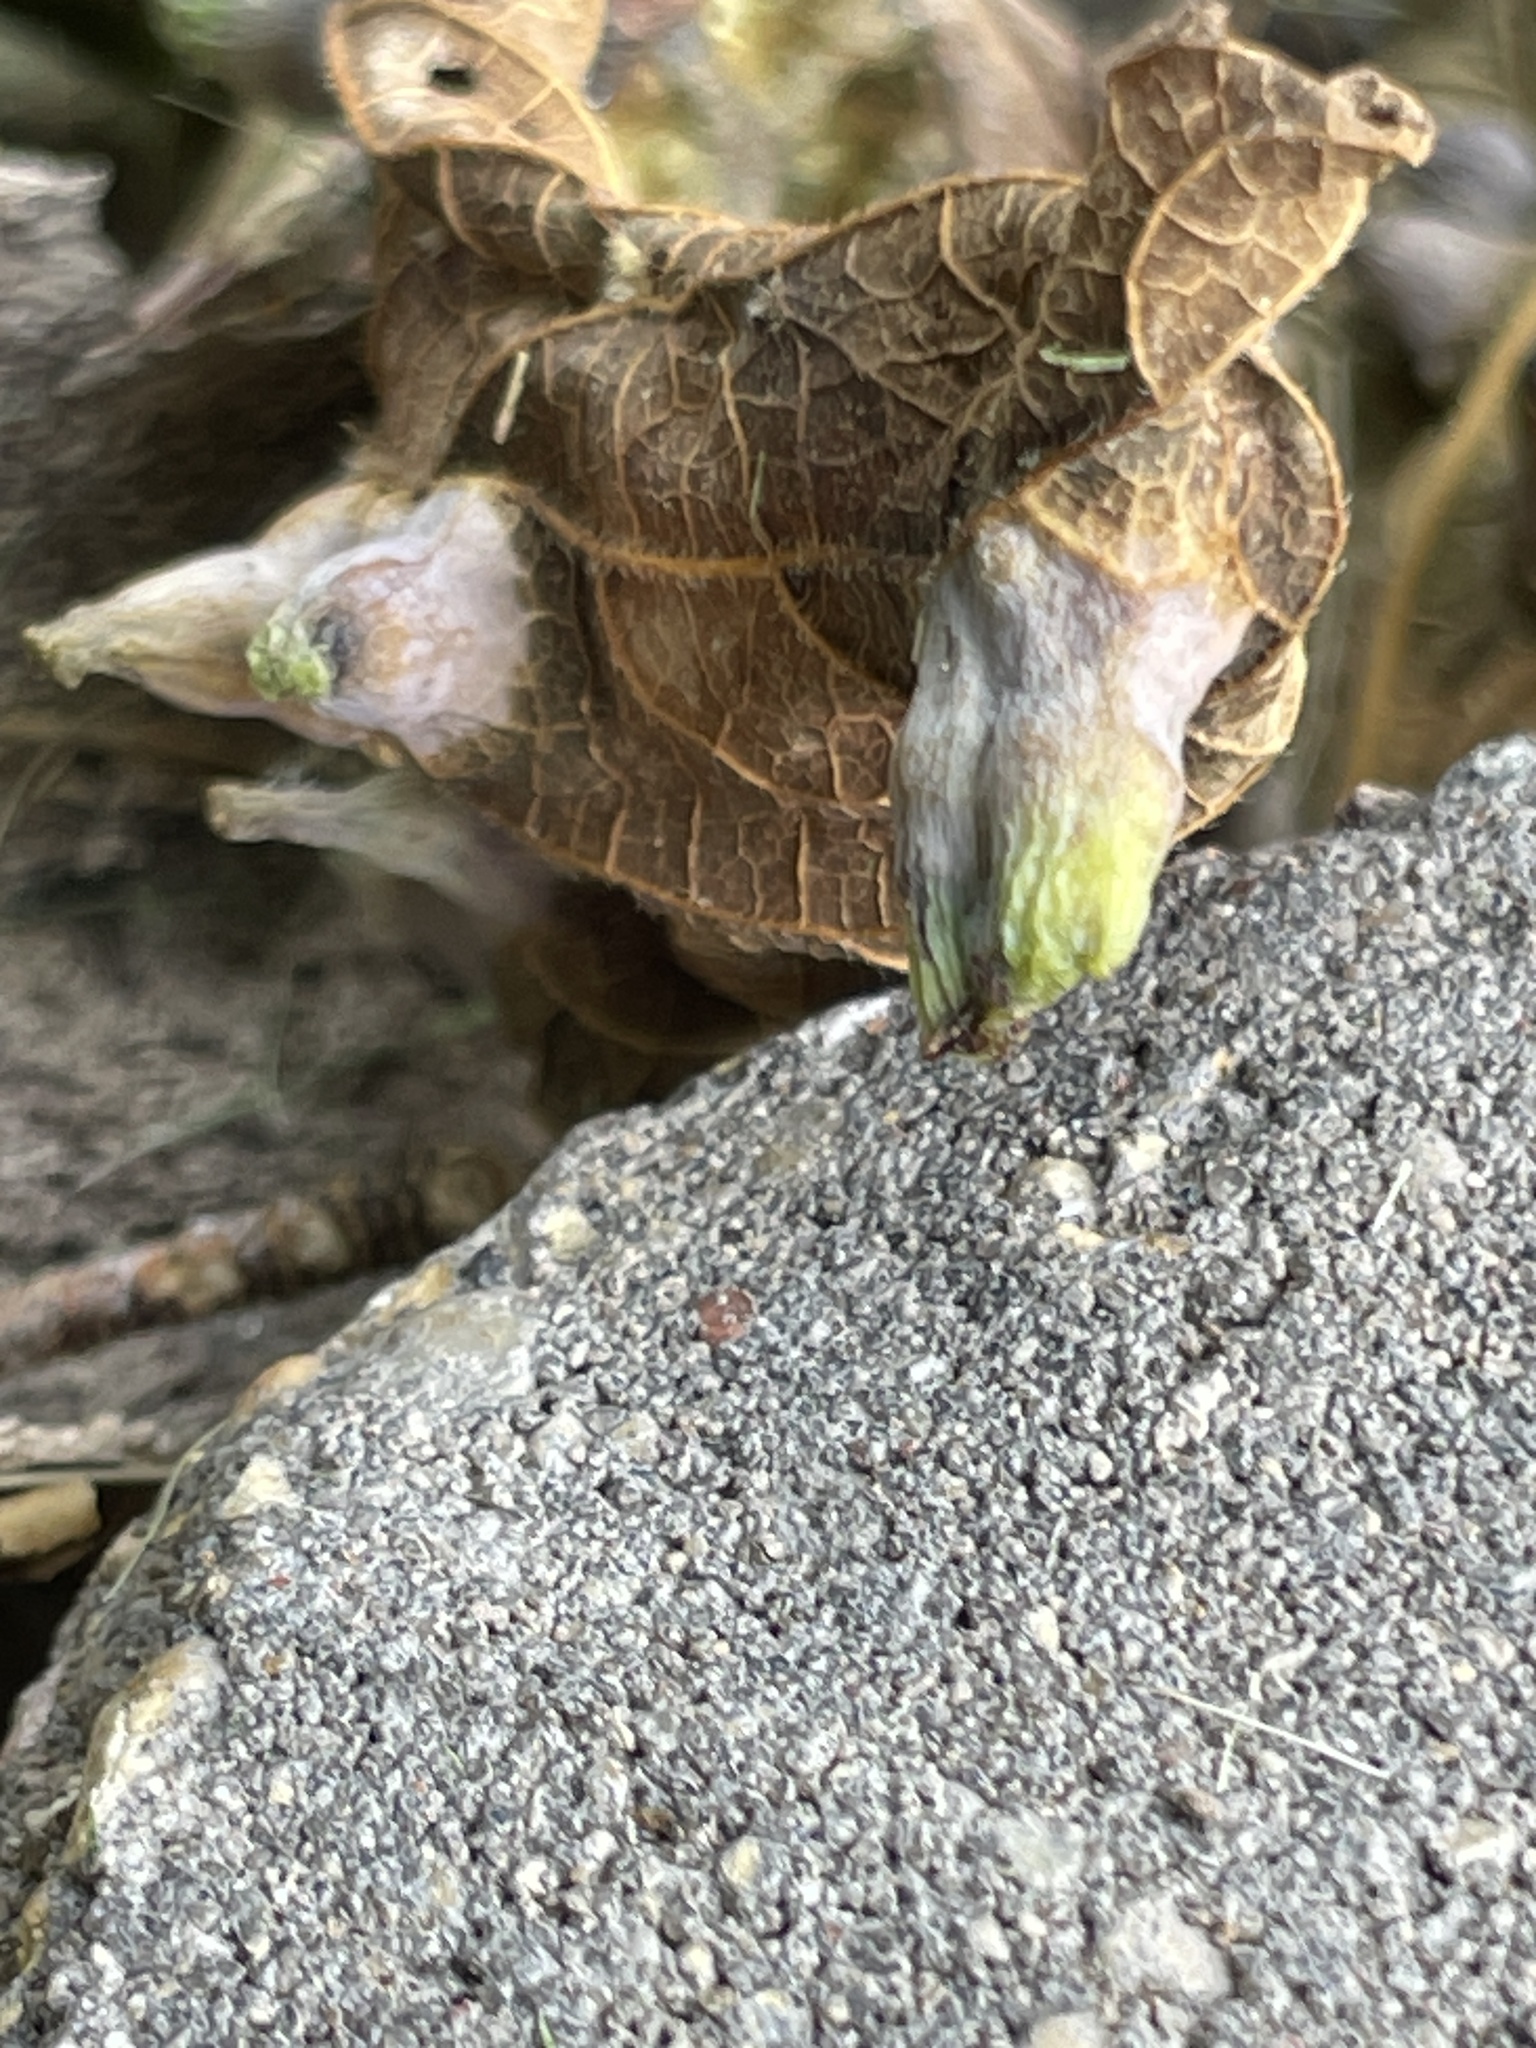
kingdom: Animalia
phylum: Arthropoda
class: Insecta
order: Hemiptera
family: Aphalaridae
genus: Pachypsylla
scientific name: Pachypsylla celtidismamma
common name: Hackberry nipplegall psyllid
